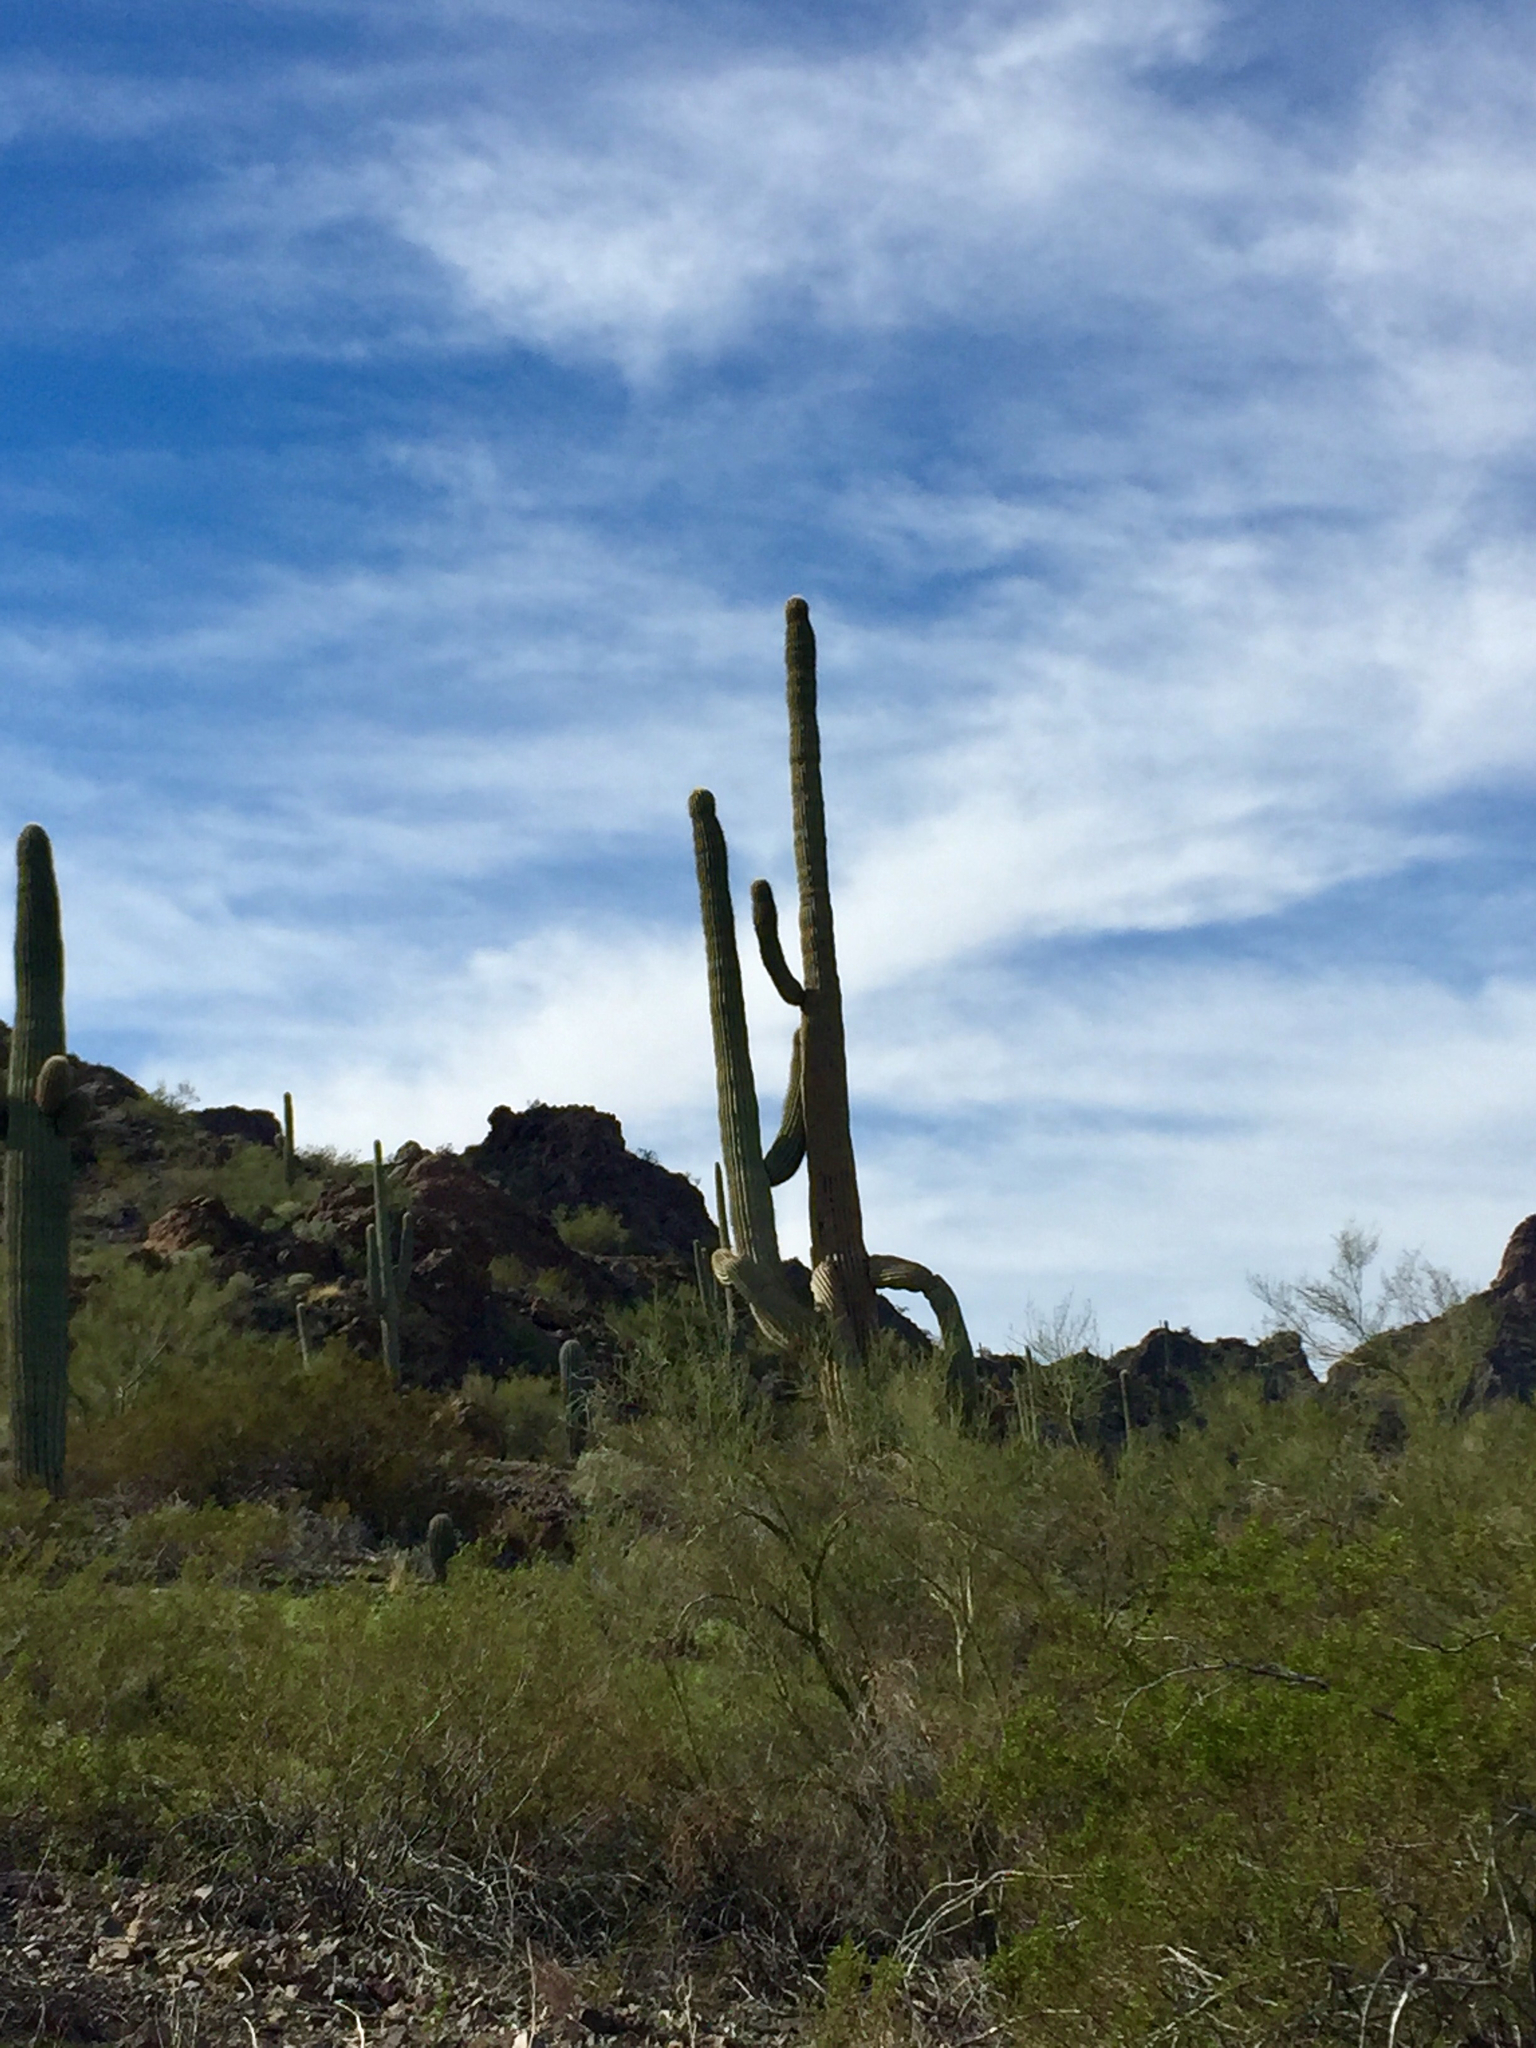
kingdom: Plantae
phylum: Tracheophyta
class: Magnoliopsida
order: Caryophyllales
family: Cactaceae
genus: Carnegiea
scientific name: Carnegiea gigantea
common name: Saguaro
